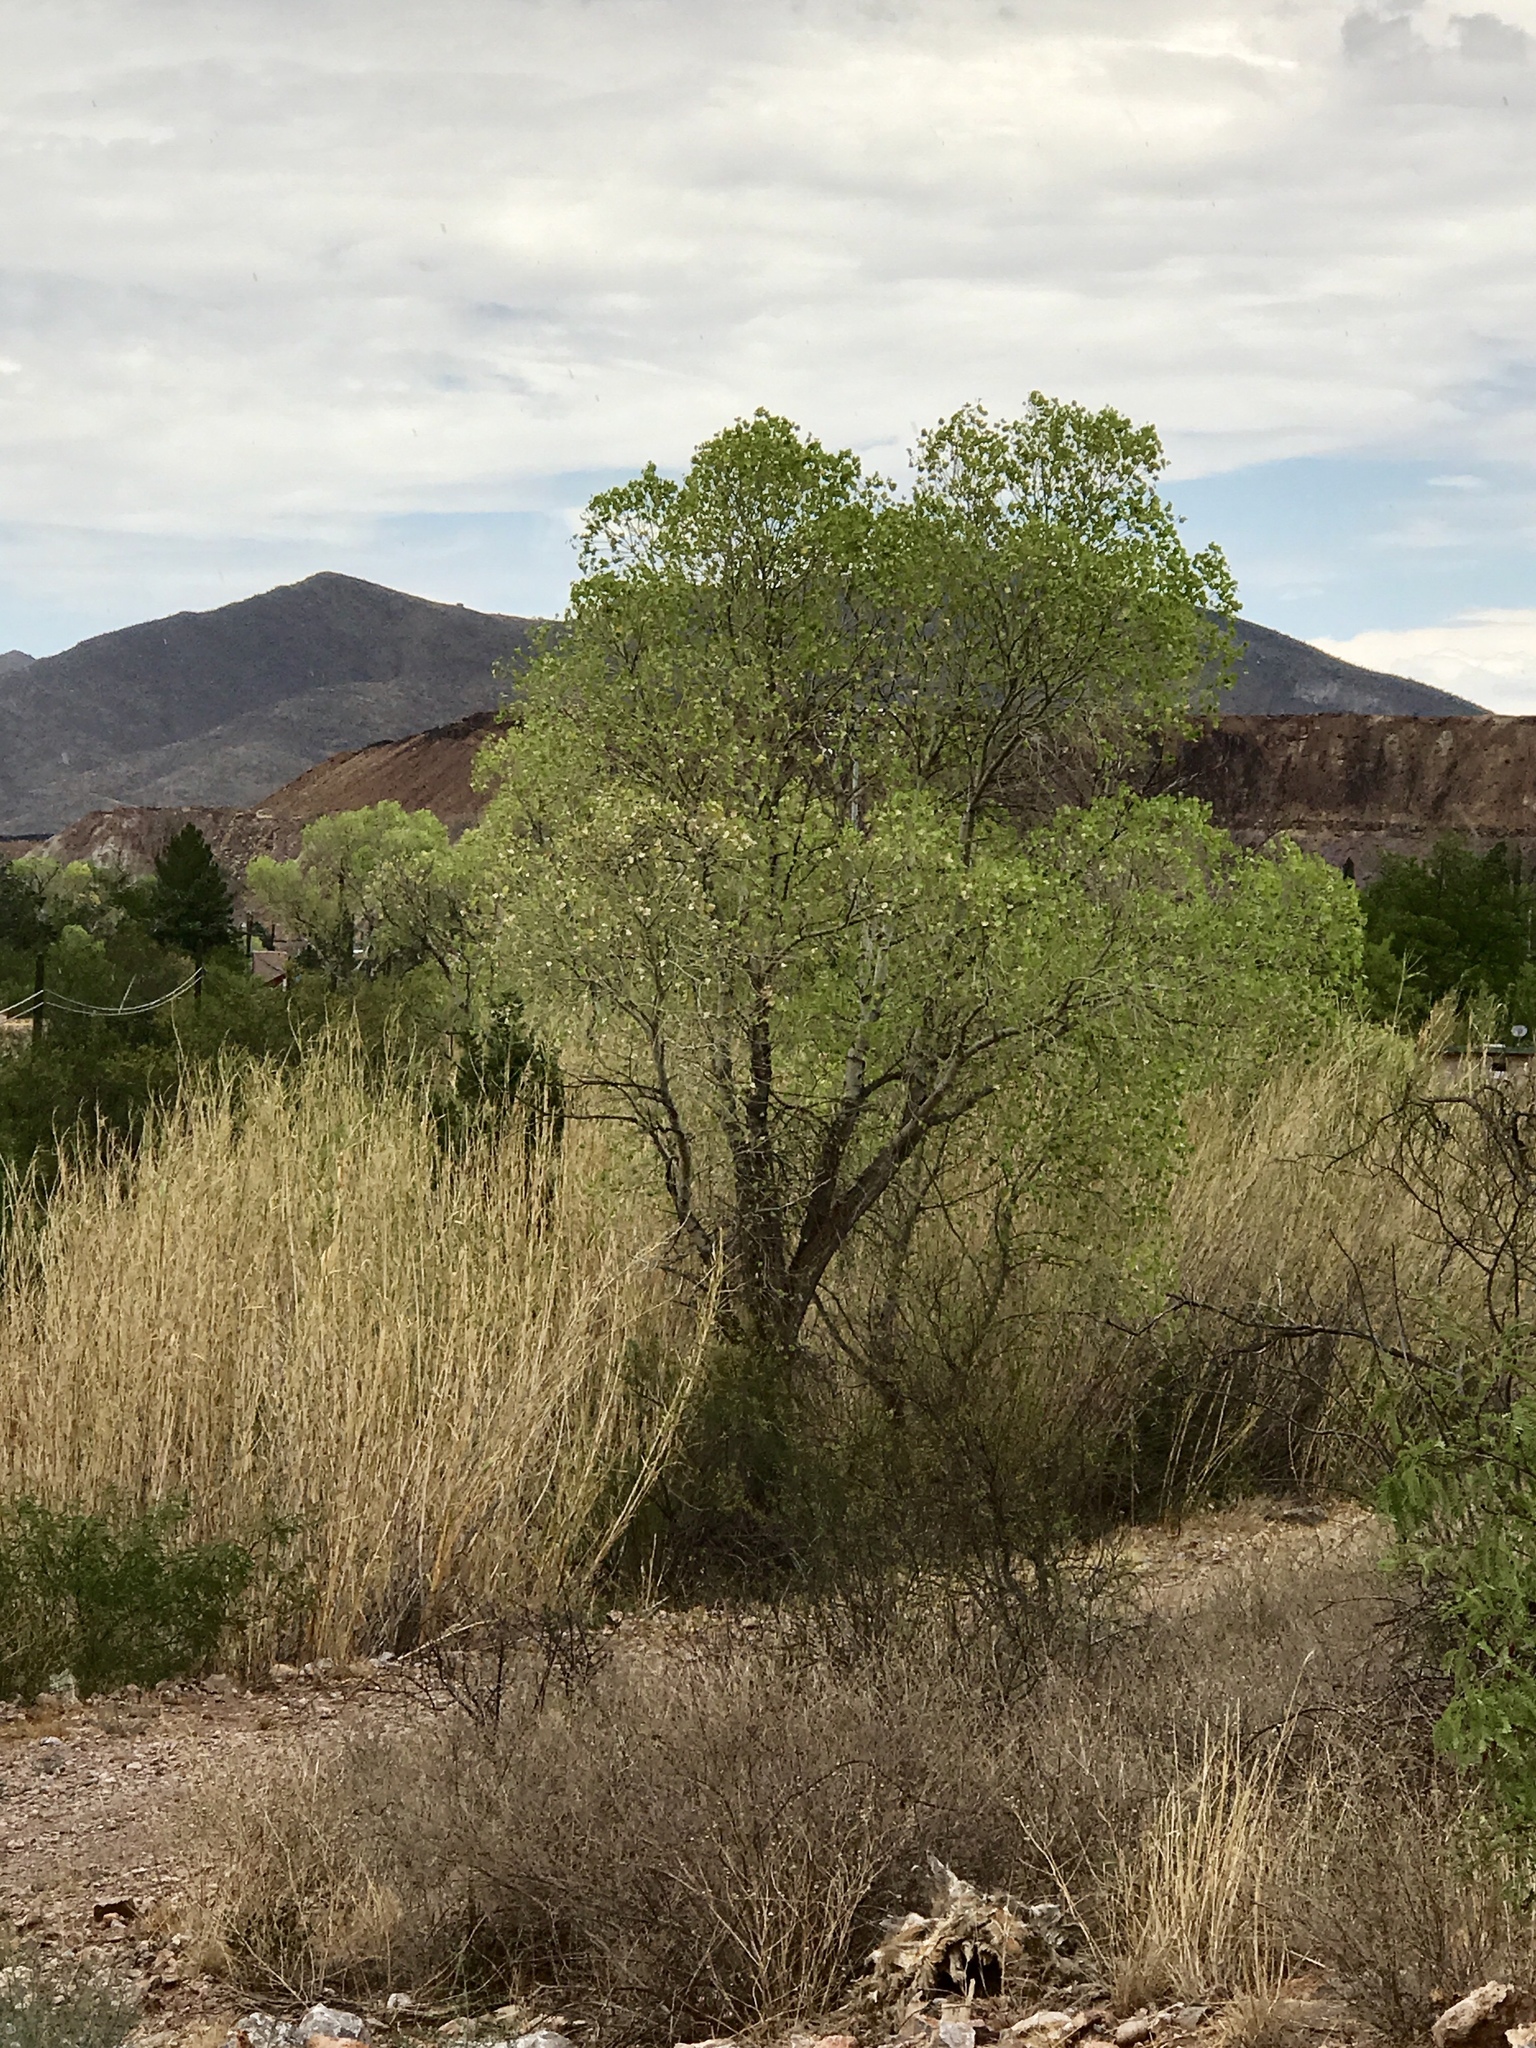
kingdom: Plantae
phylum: Tracheophyta
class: Magnoliopsida
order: Malpighiales
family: Salicaceae
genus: Populus
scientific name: Populus fremontii
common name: Fremont's cottonwood
